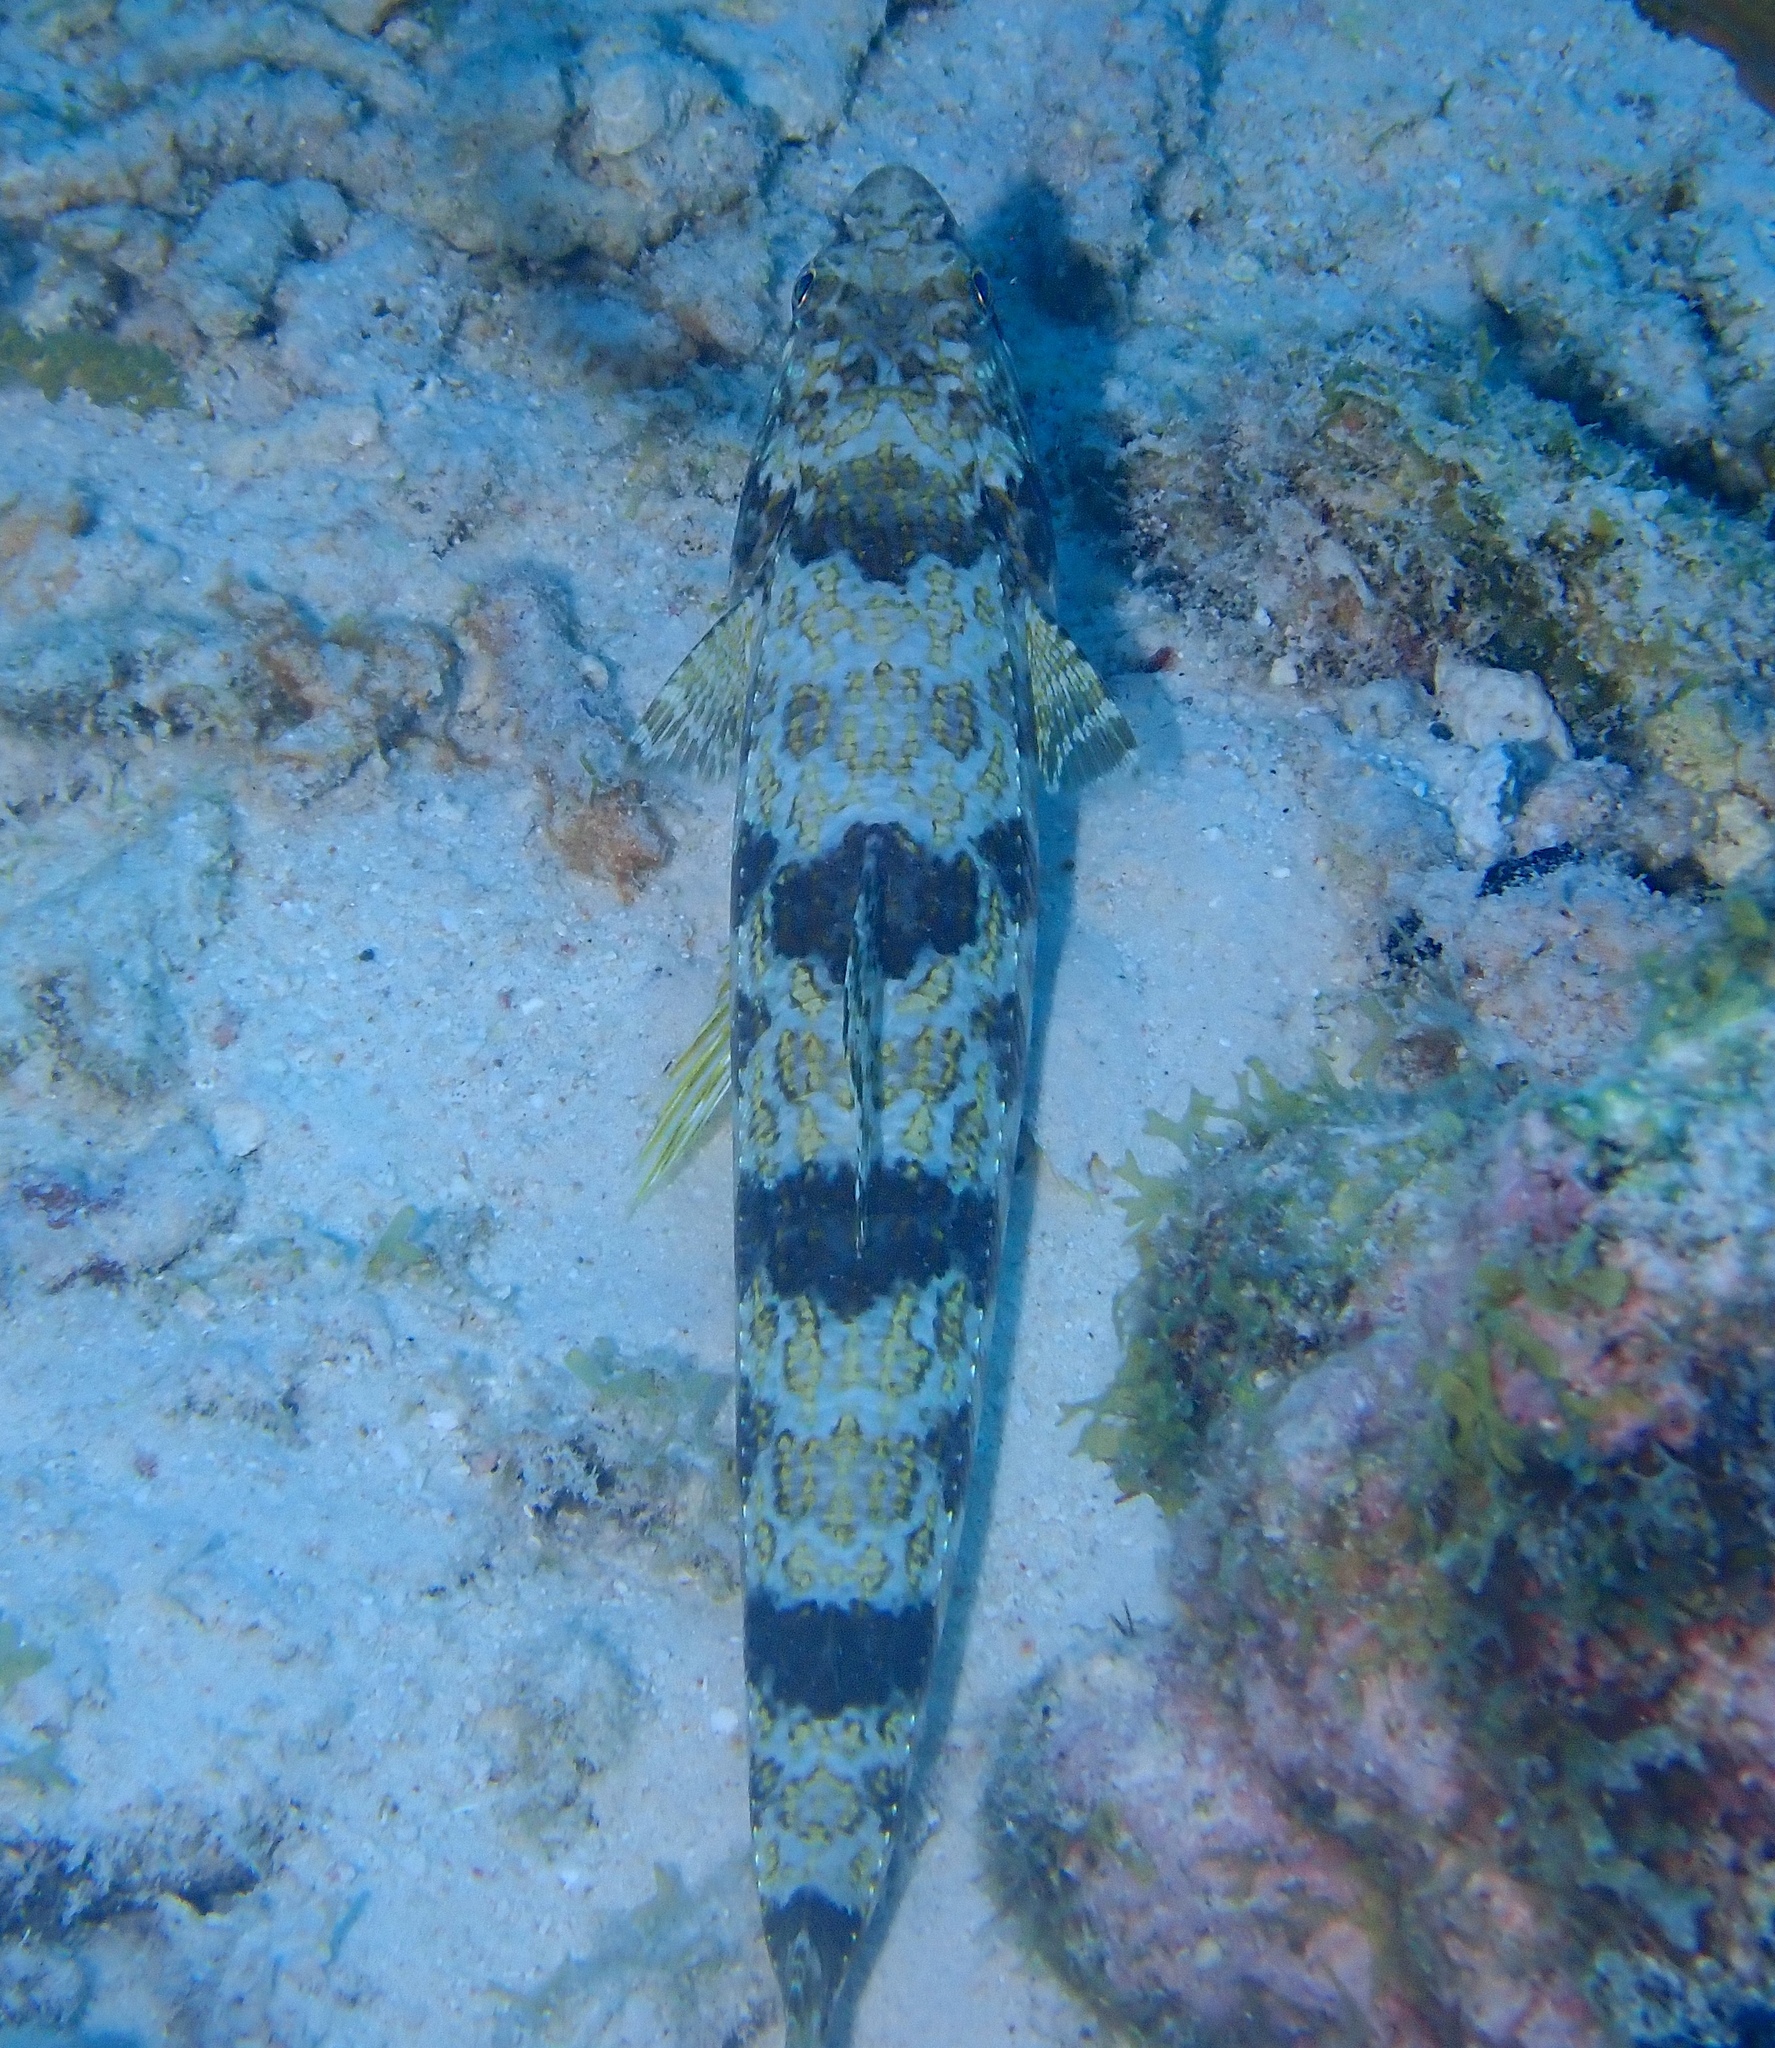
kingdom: Animalia
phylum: Chordata
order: Aulopiformes
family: Synodontidae
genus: Synodus
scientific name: Synodus intermedius
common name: Sand diver
